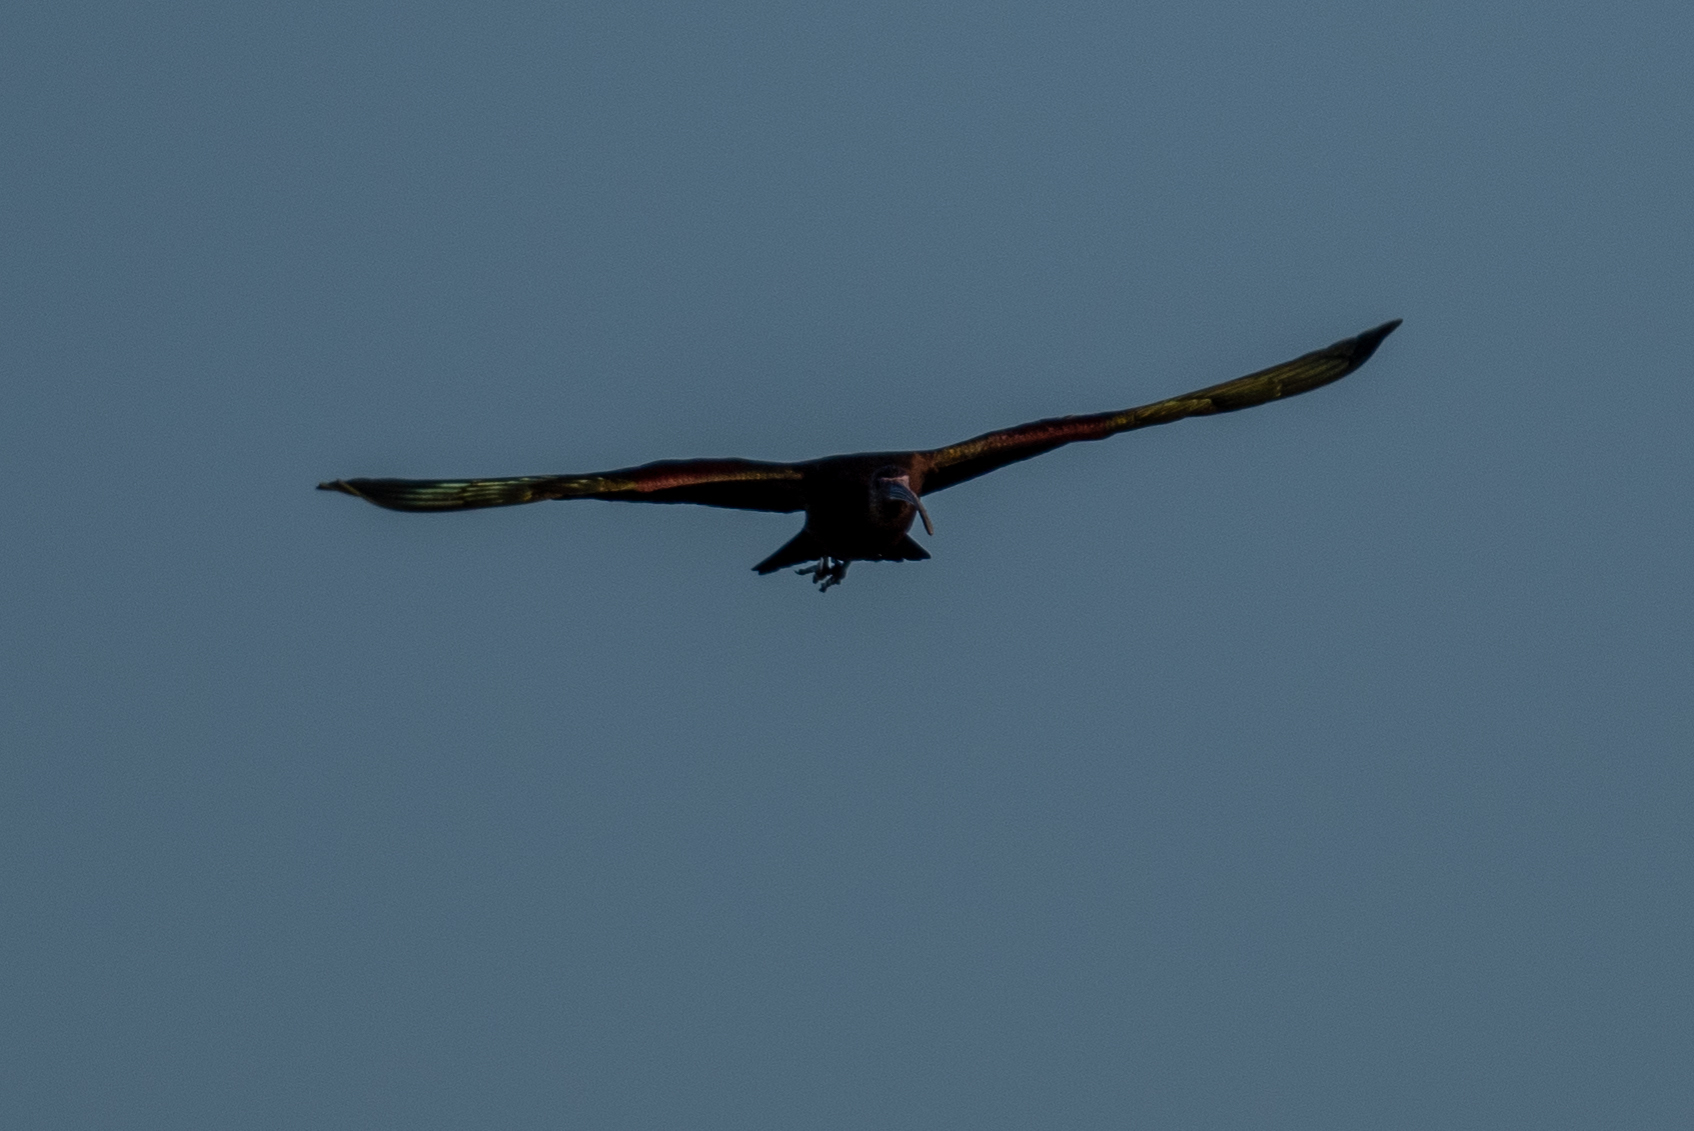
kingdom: Animalia
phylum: Chordata
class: Aves
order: Pelecaniformes
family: Threskiornithidae
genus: Plegadis
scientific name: Plegadis chihi
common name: White-faced ibis
